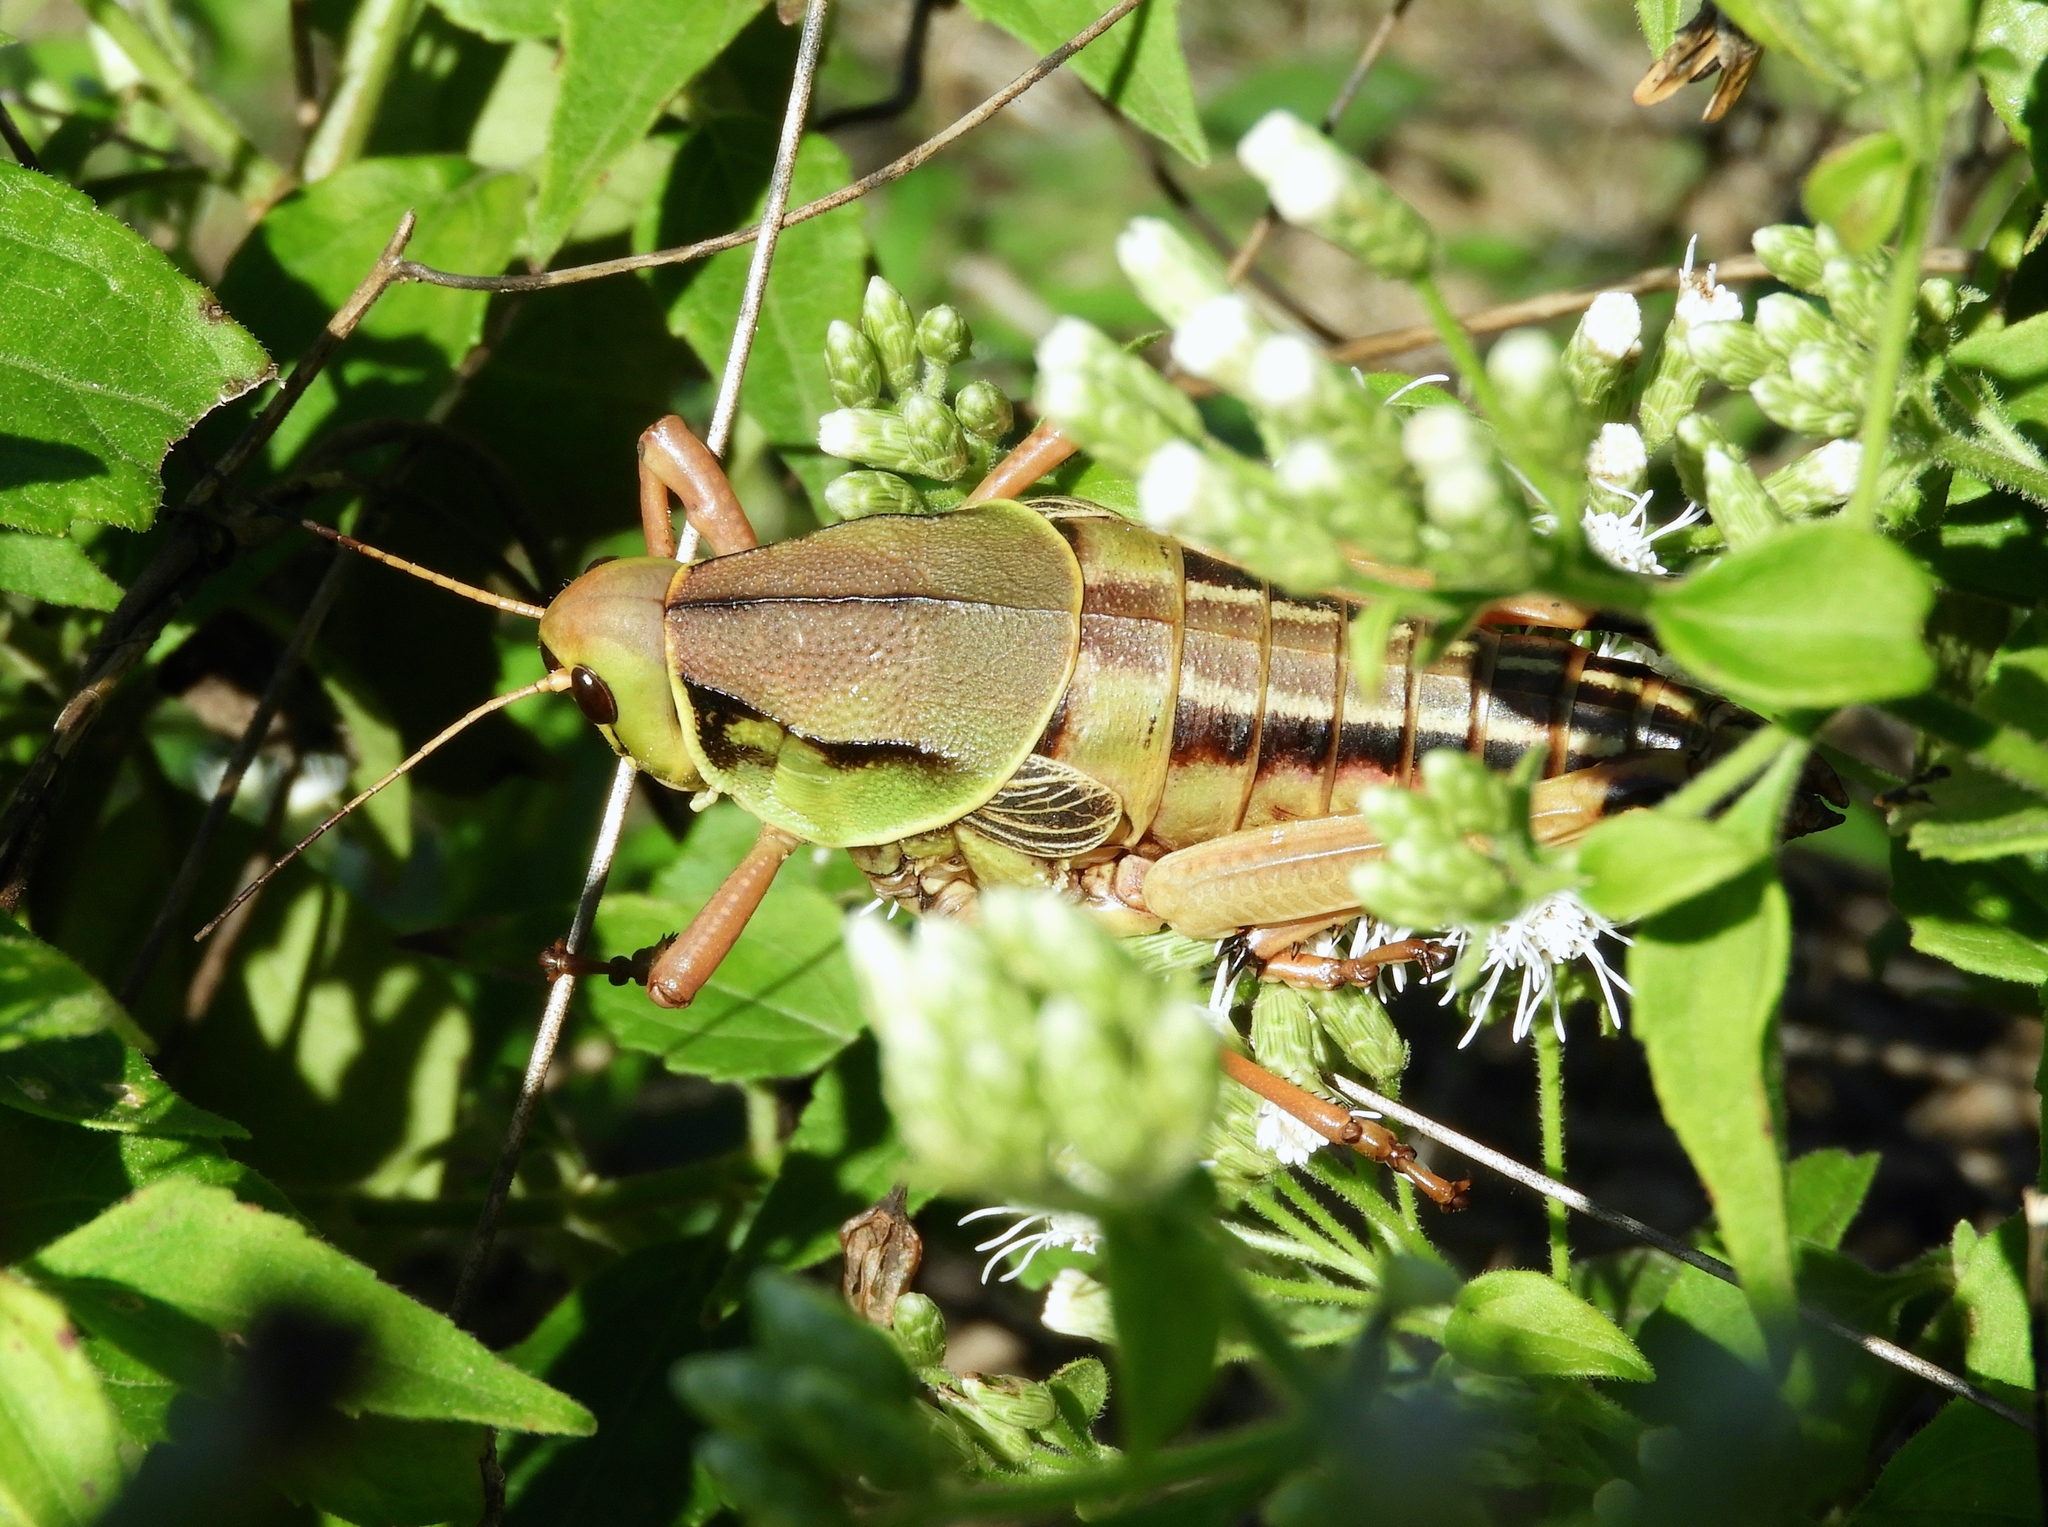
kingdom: Animalia
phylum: Arthropoda
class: Insecta
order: Orthoptera
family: Romaleidae
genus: Brachystola
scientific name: Brachystola behrensii
